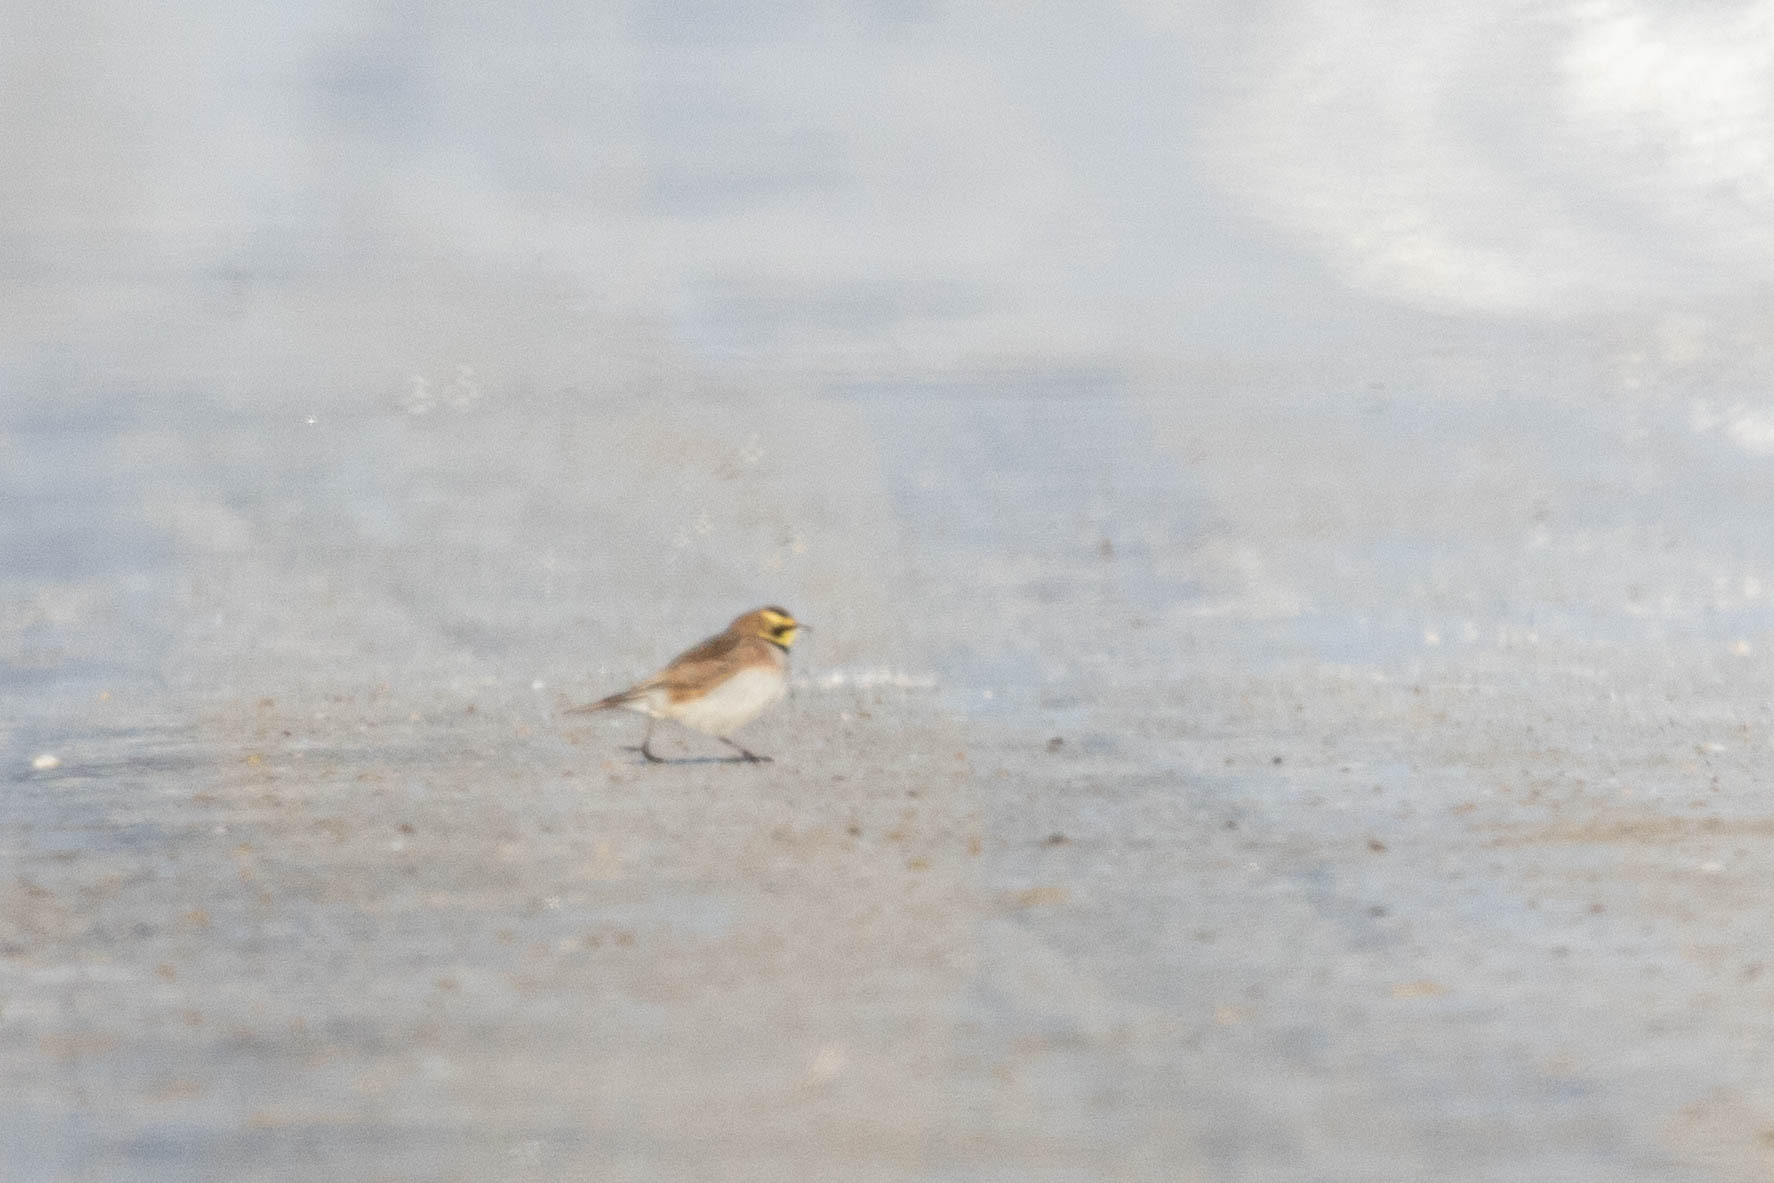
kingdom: Animalia
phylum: Chordata
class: Aves
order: Passeriformes
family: Alaudidae
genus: Eremophila
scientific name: Eremophila alpestris
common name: Horned lark
